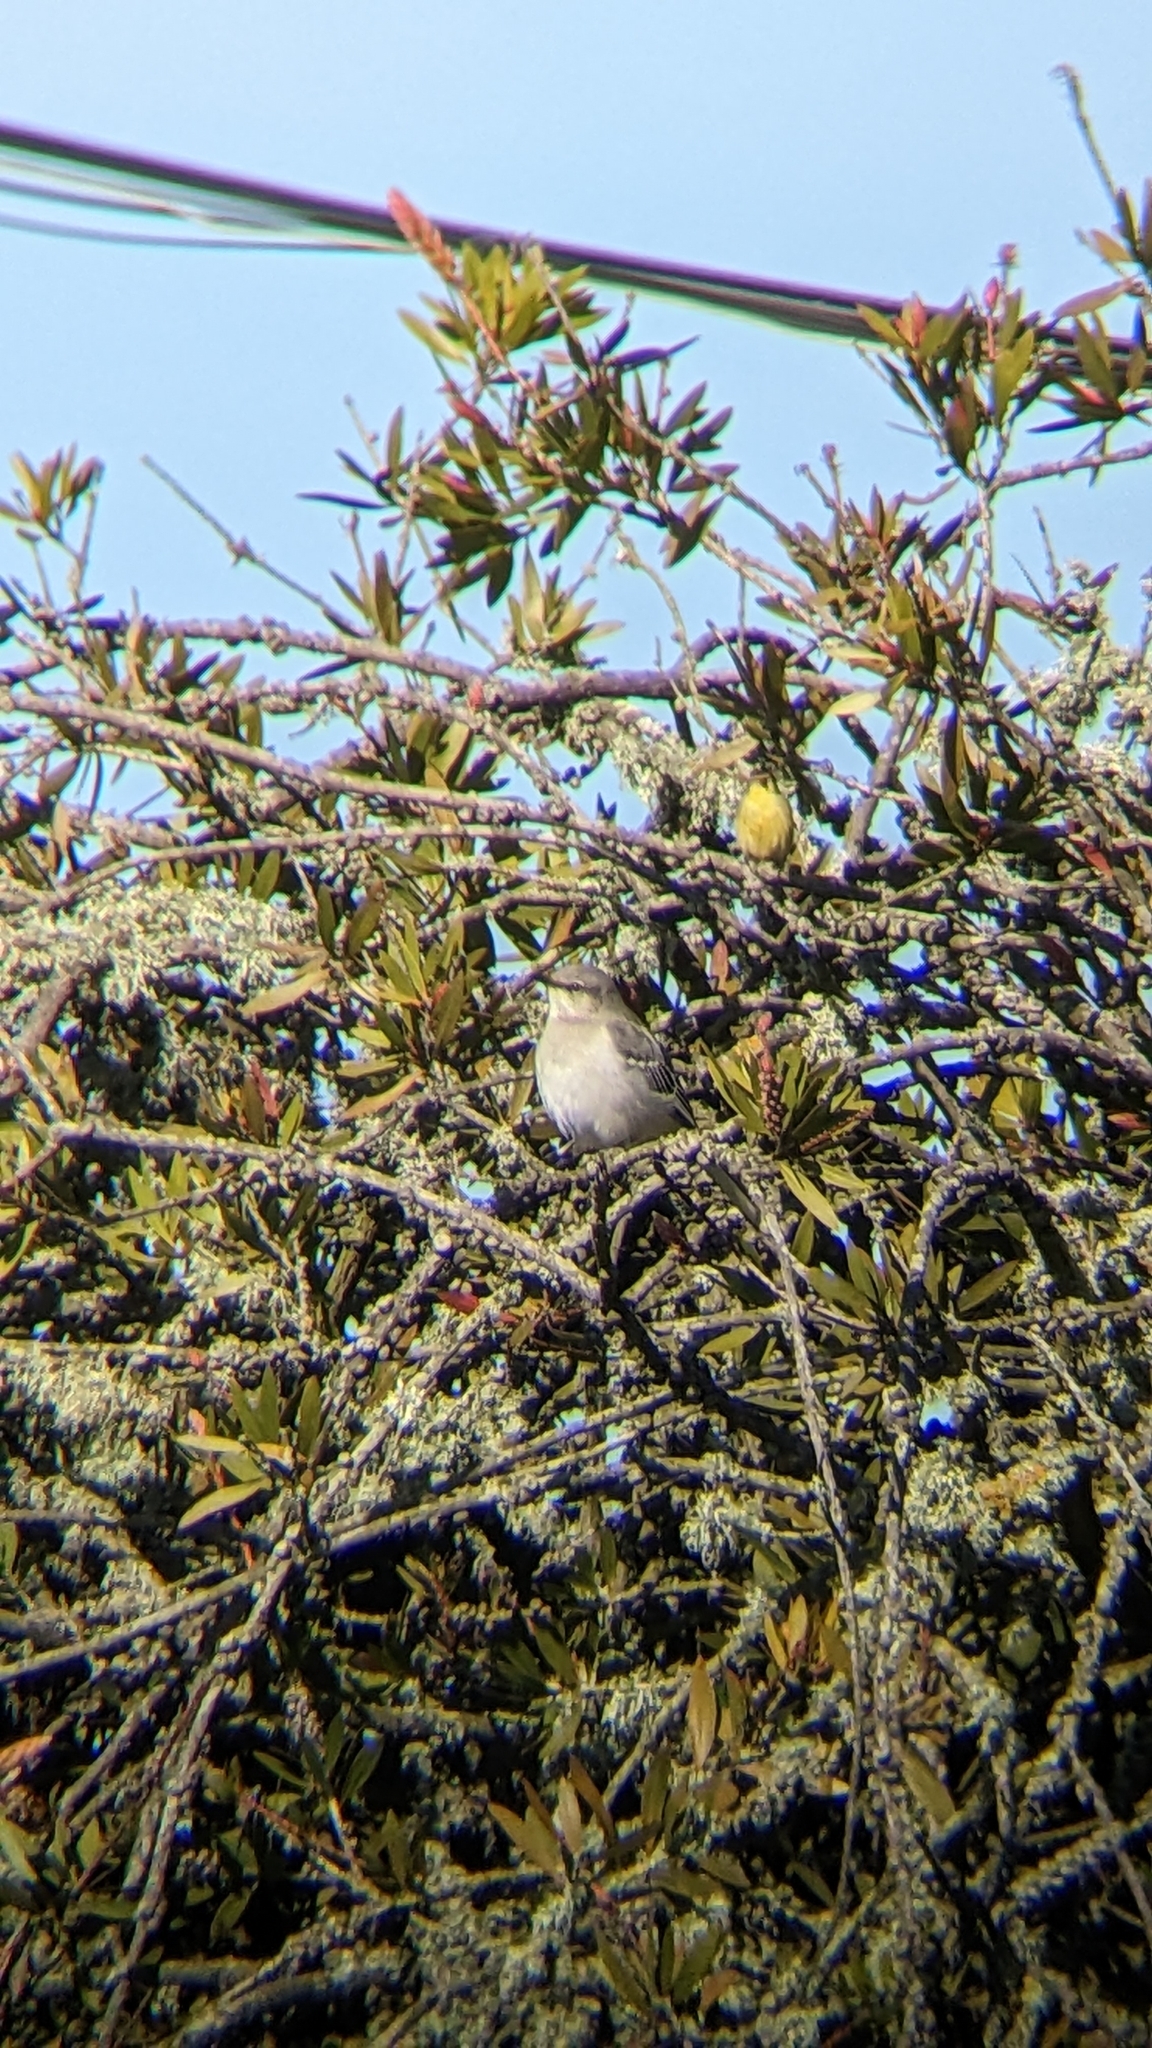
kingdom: Animalia
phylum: Chordata
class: Aves
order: Passeriformes
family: Mimidae
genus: Mimus
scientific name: Mimus polyglottos
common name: Northern mockingbird
